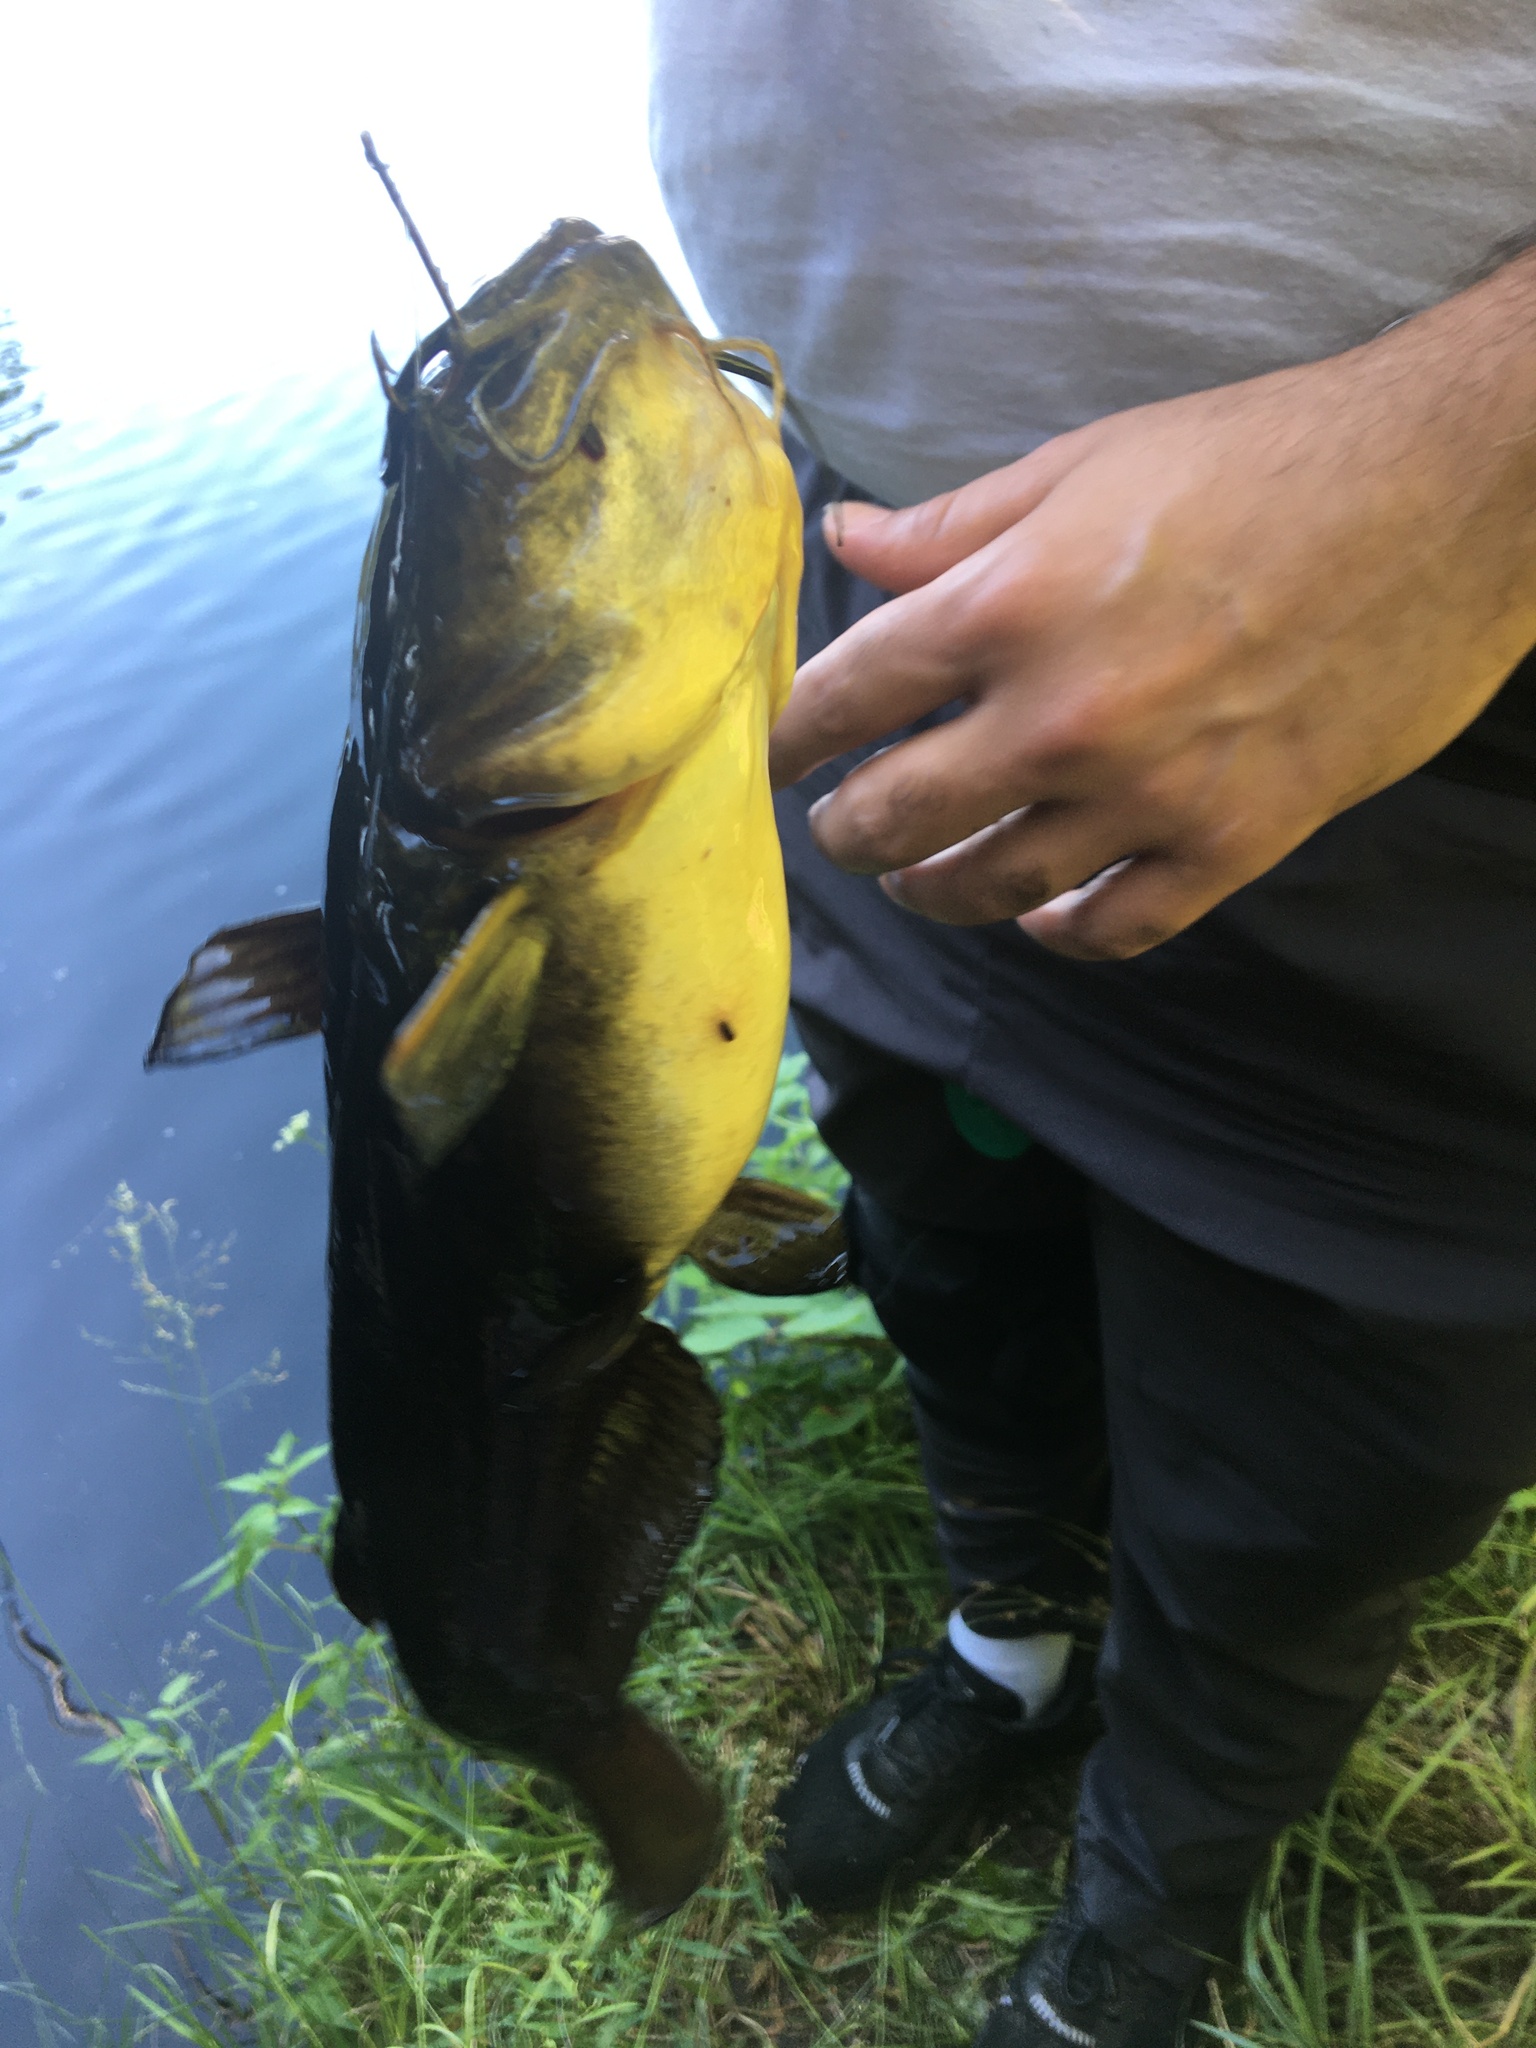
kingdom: Animalia
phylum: Chordata
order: Siluriformes
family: Ictaluridae
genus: Ameiurus
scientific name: Ameiurus natalis
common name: Yellow bullhead
